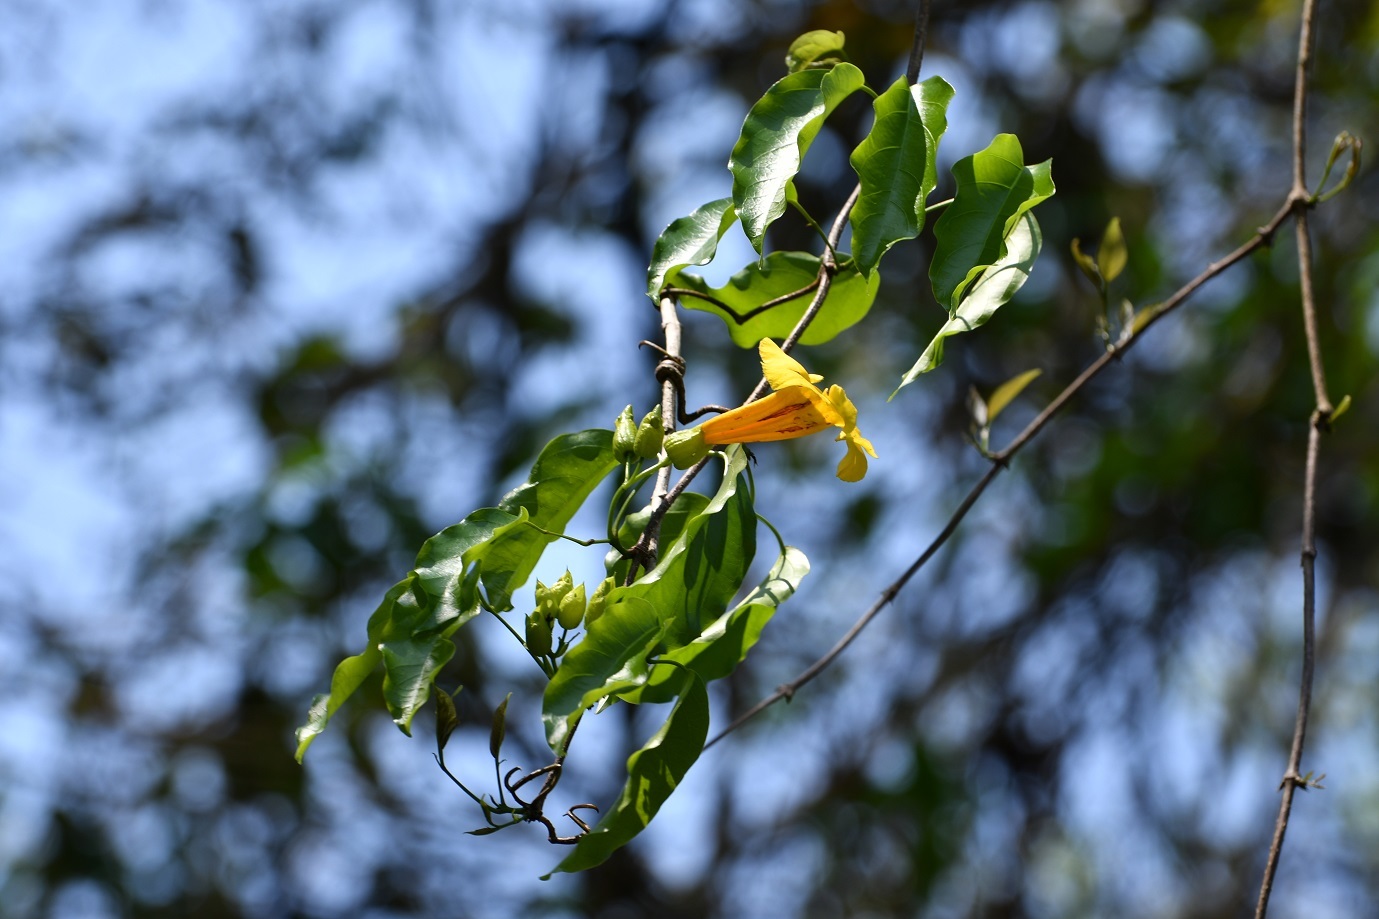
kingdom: Plantae
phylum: Tracheophyta
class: Magnoliopsida
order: Lamiales
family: Bignoniaceae
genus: Anemopaegma
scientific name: Anemopaegma chrysanthum
